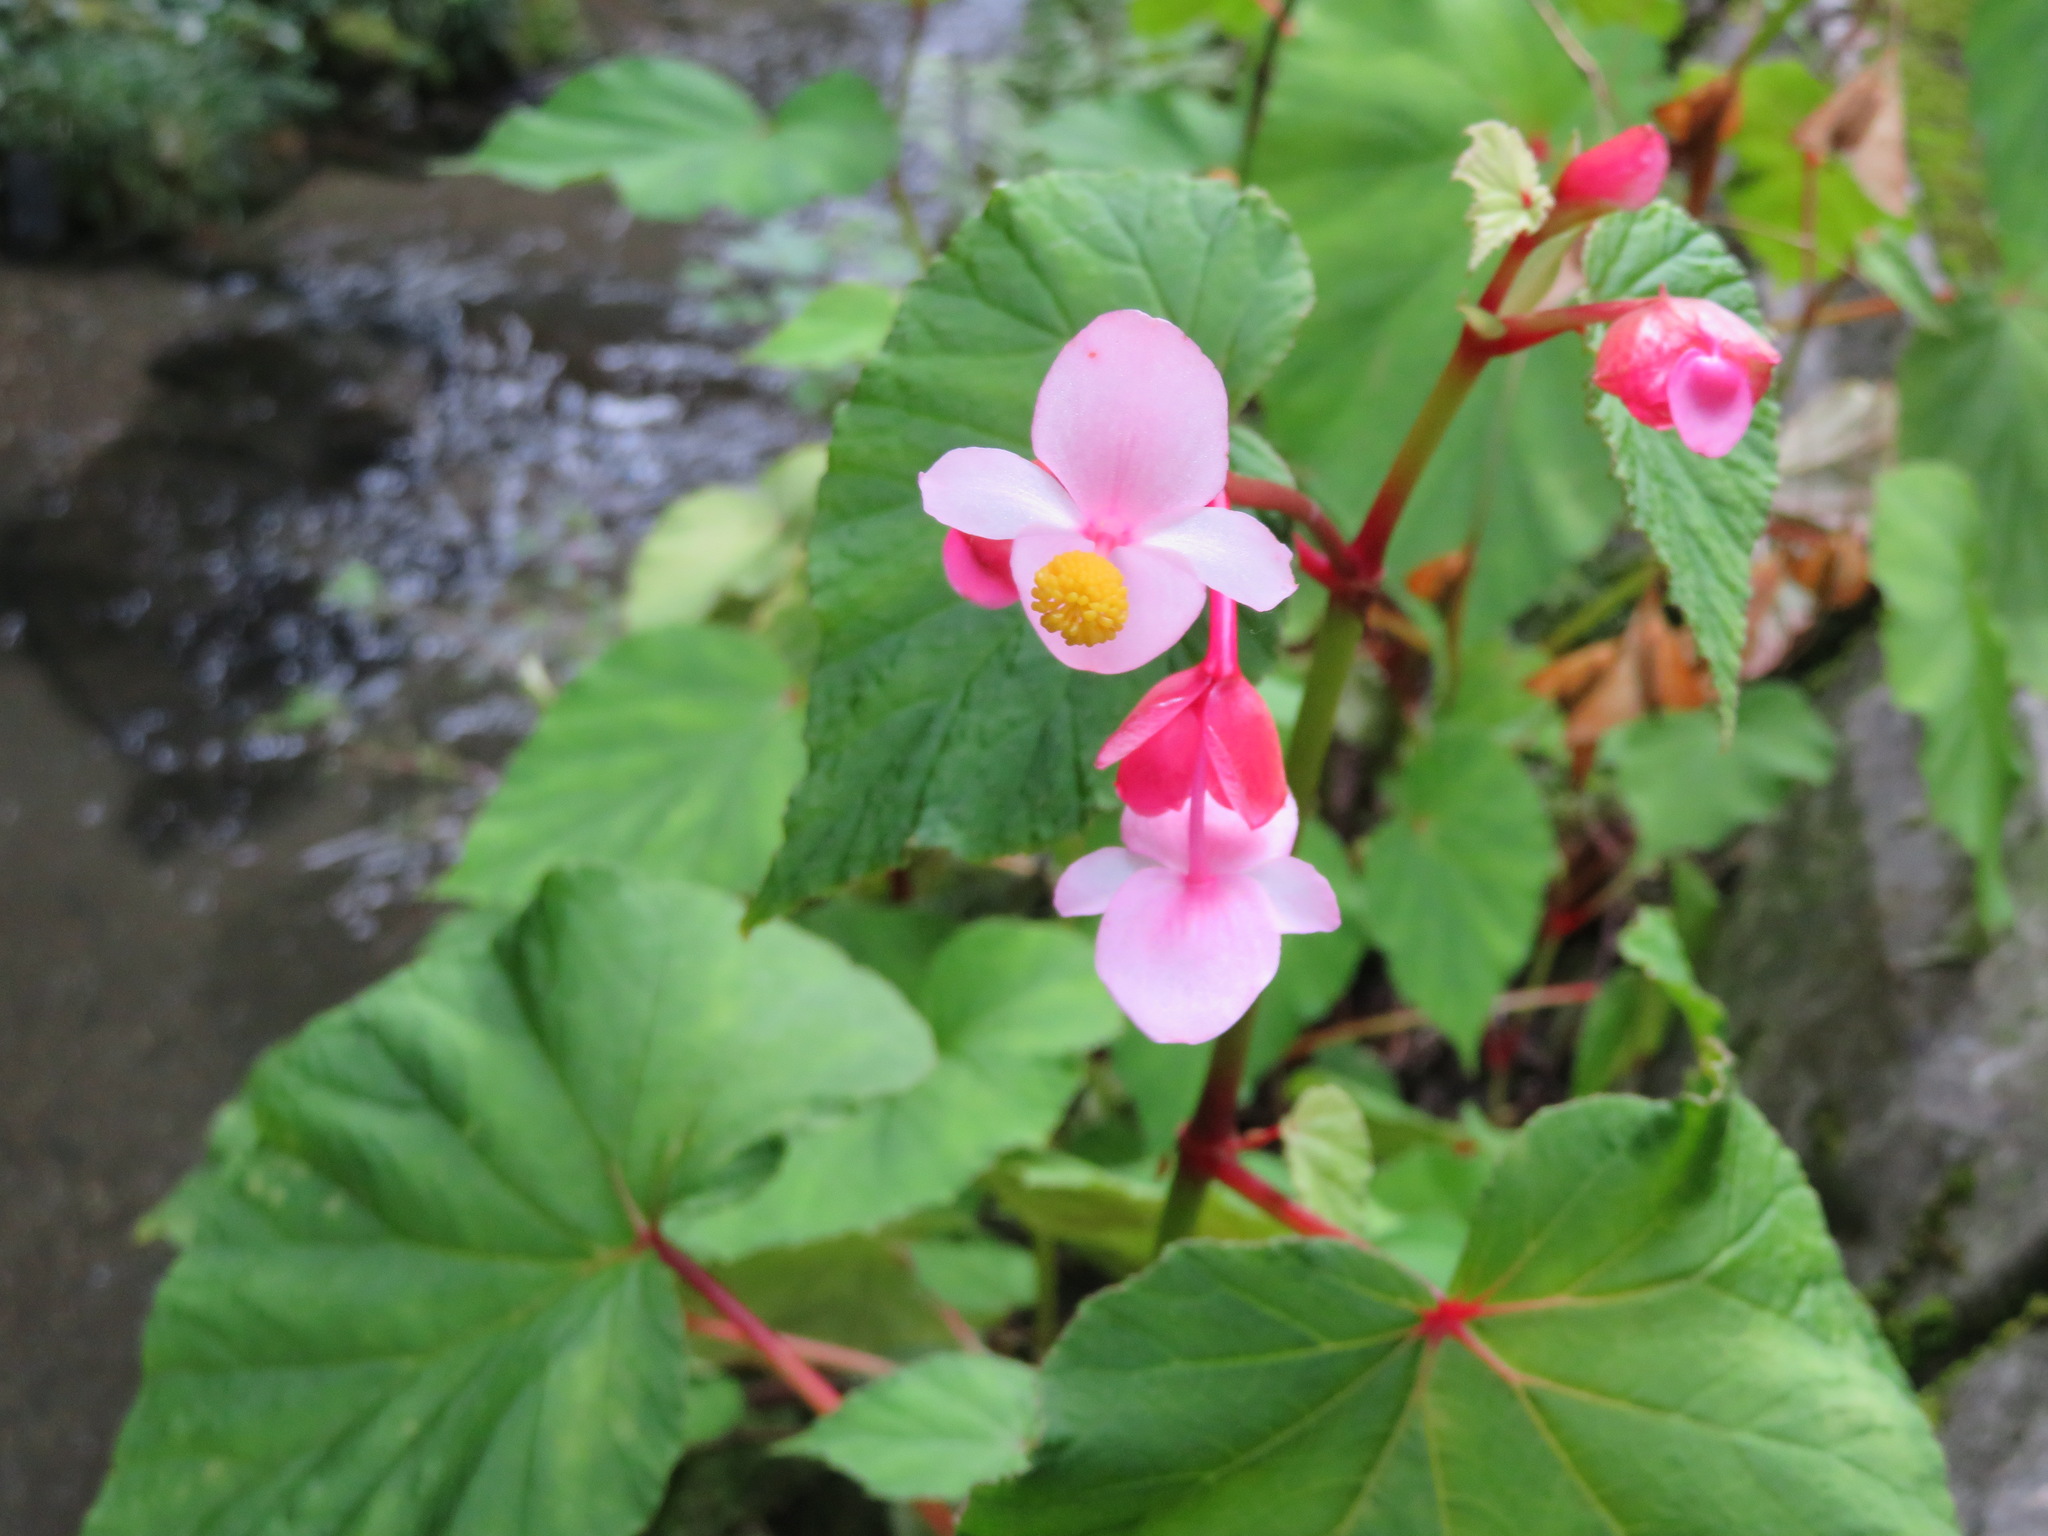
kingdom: Plantae
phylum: Tracheophyta
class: Magnoliopsida
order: Cucurbitales
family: Begoniaceae
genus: Begonia
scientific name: Begonia grandis
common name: Hardy begonia
